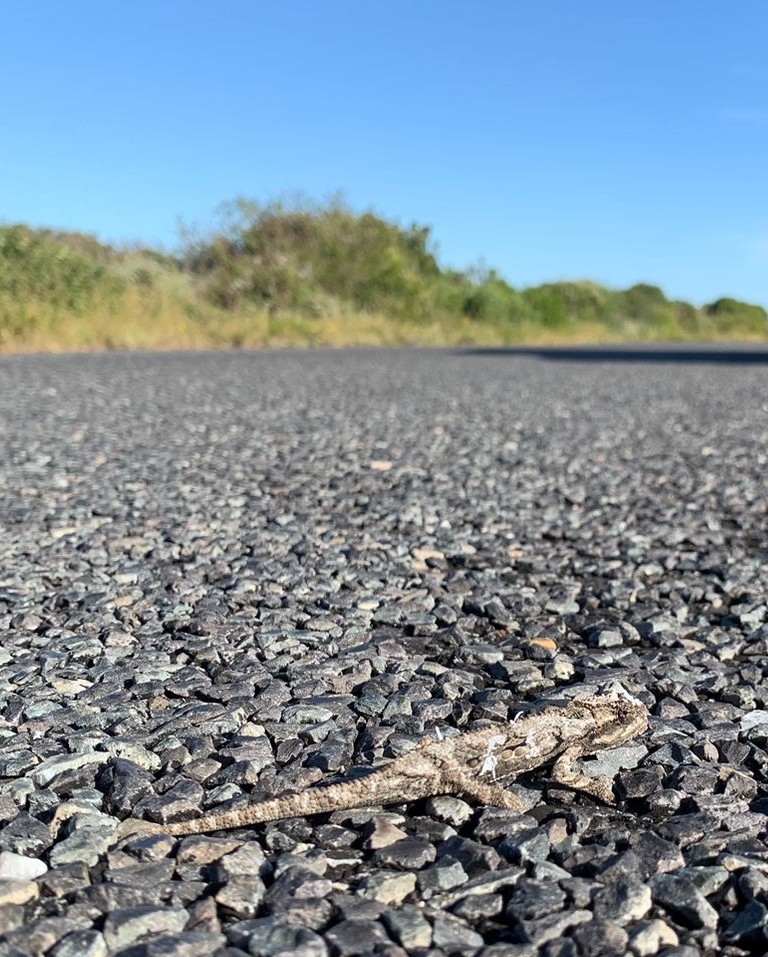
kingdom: Animalia
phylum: Chordata
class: Squamata
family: Chamaeleonidae
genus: Bradypodion
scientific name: Bradypodion occidentale
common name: Western dwarf chameleon
